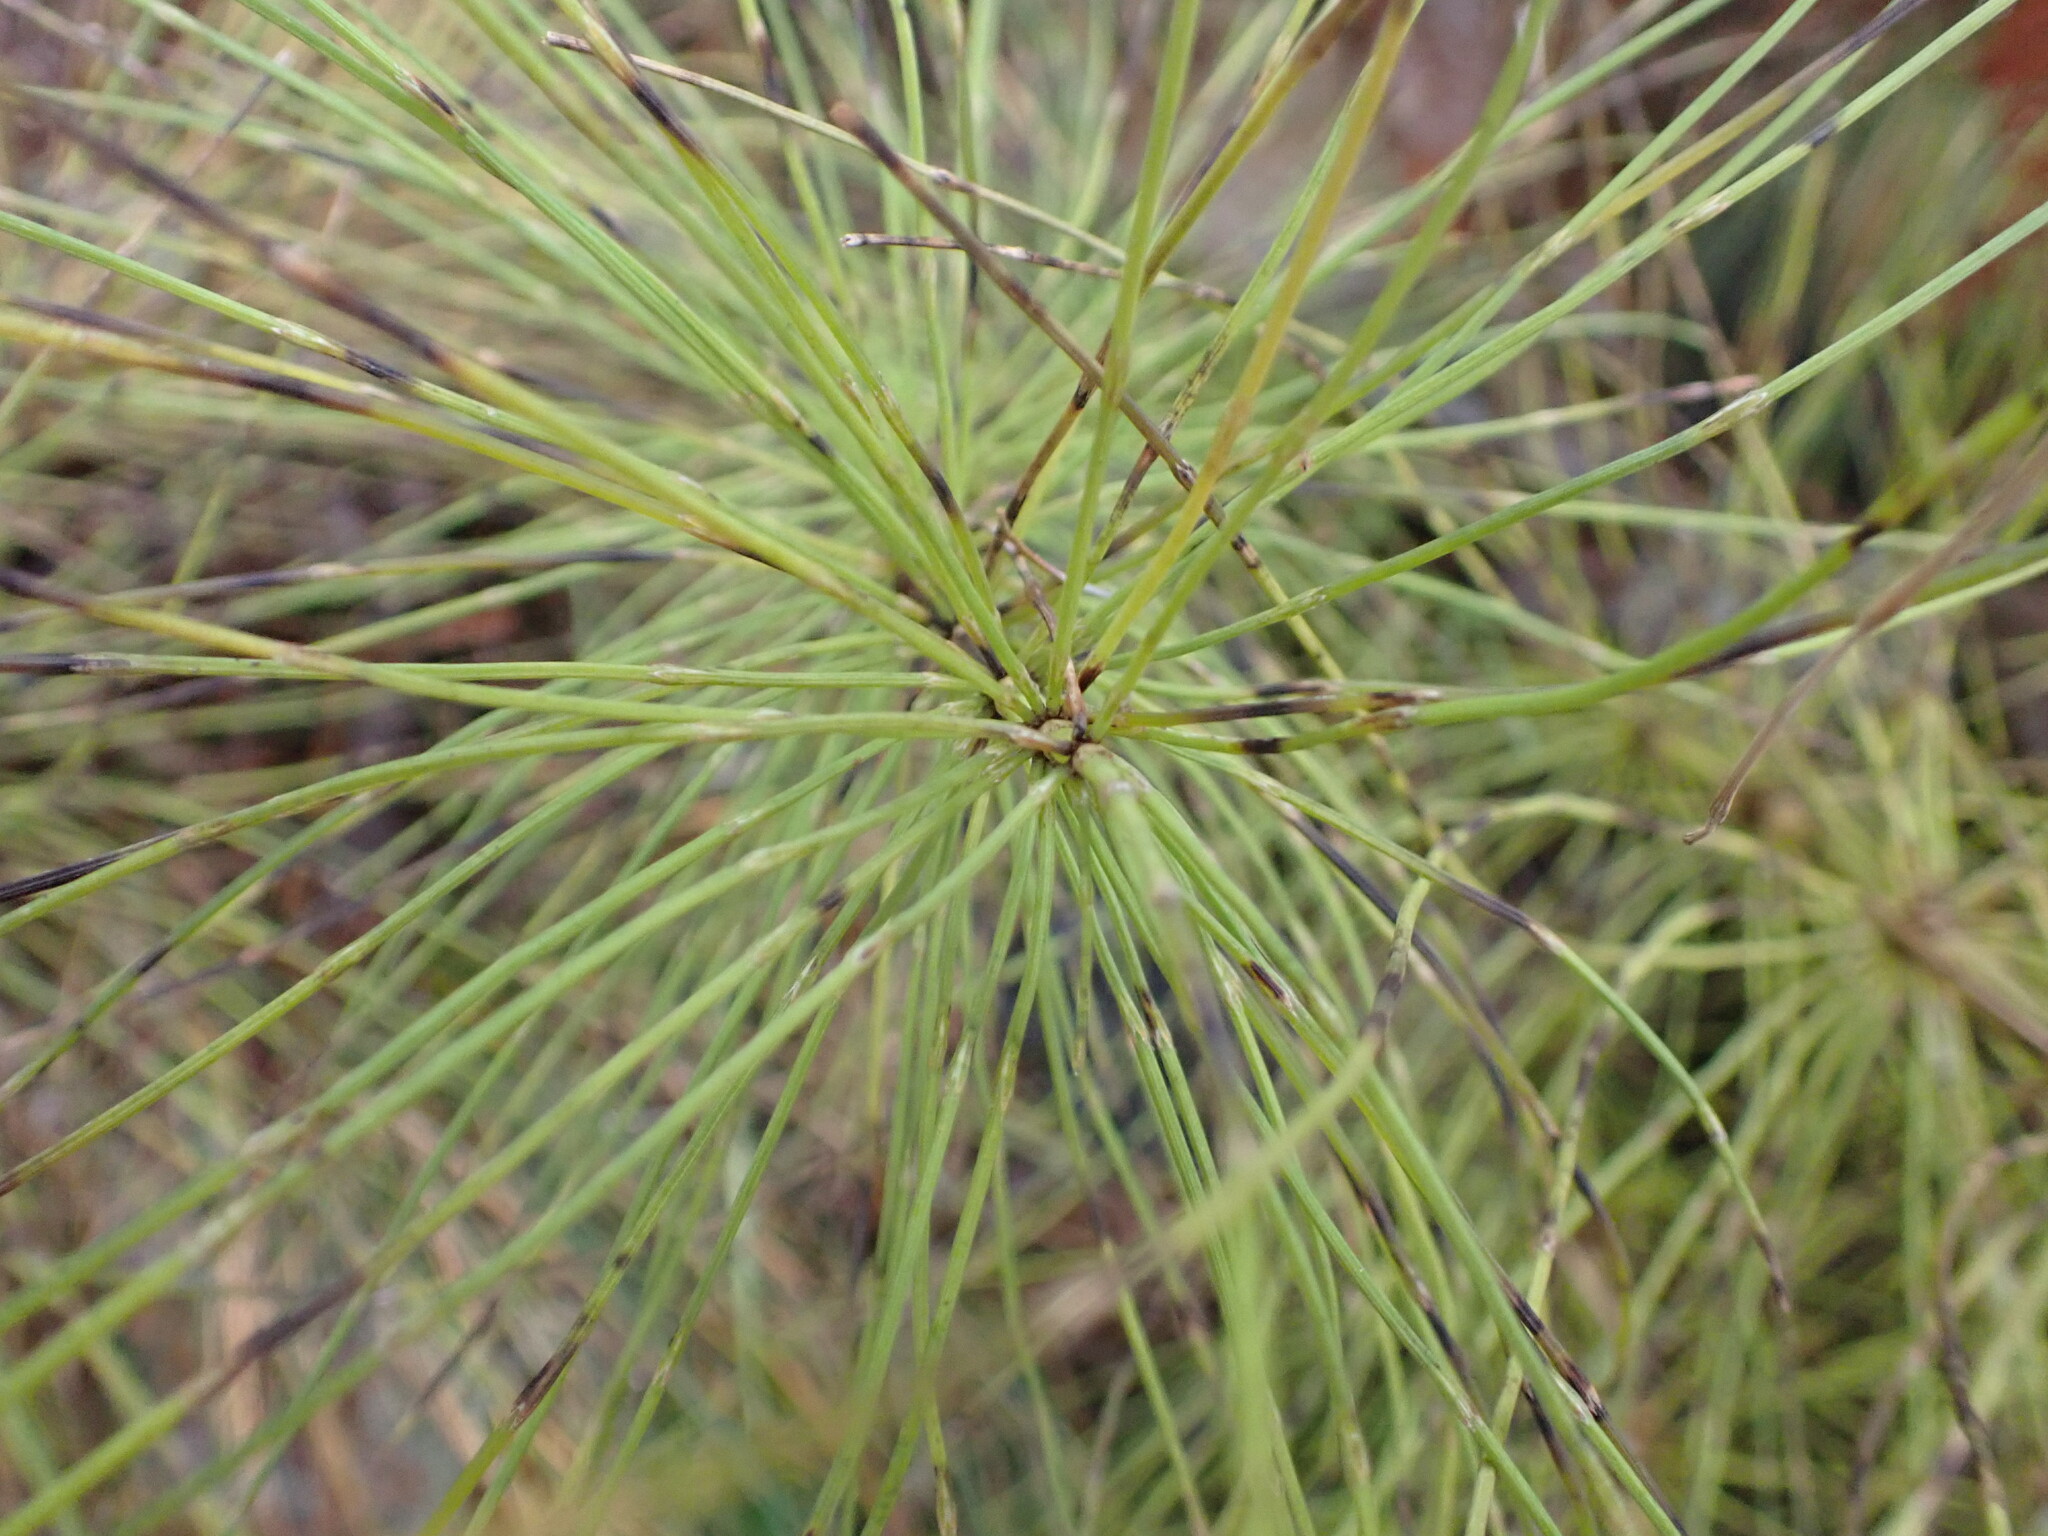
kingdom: Plantae
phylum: Tracheophyta
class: Polypodiopsida
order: Equisetales
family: Equisetaceae
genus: Equisetum
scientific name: Equisetum braunii
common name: Braun's horsetail
